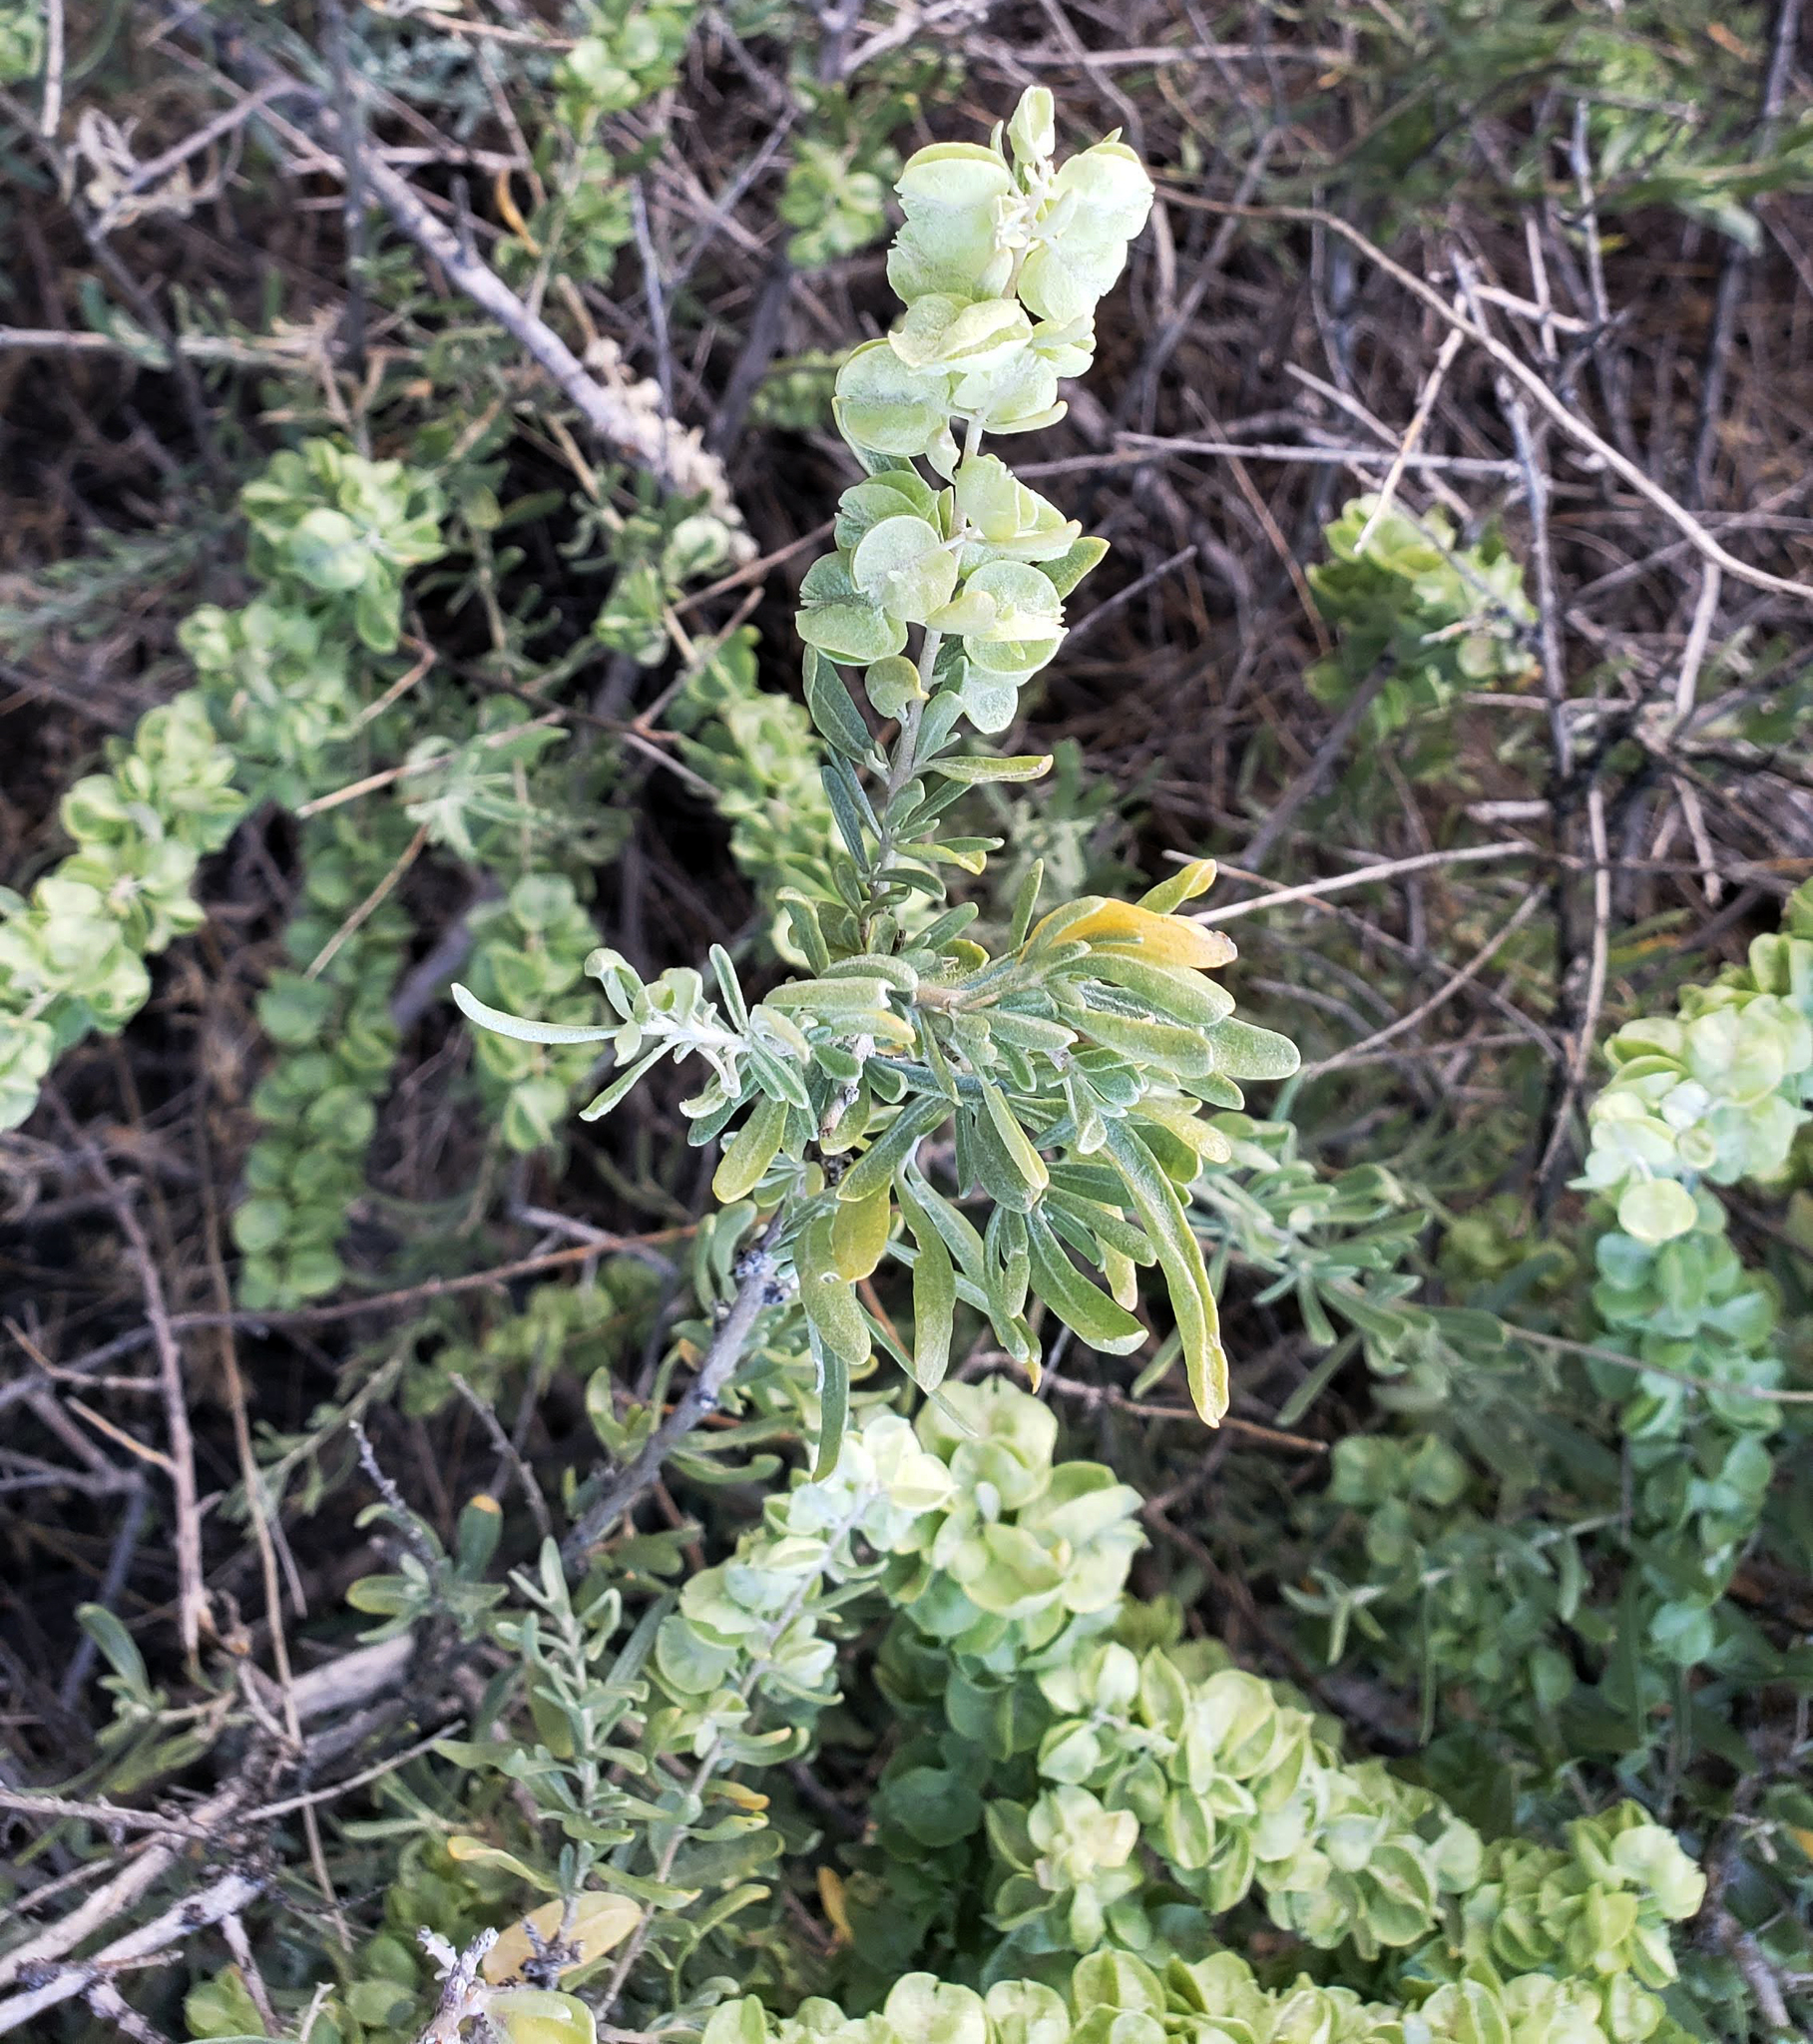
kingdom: Plantae
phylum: Tracheophyta
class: Magnoliopsida
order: Caryophyllales
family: Amaranthaceae
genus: Atriplex
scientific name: Atriplex canescens
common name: Four-wing saltbush
